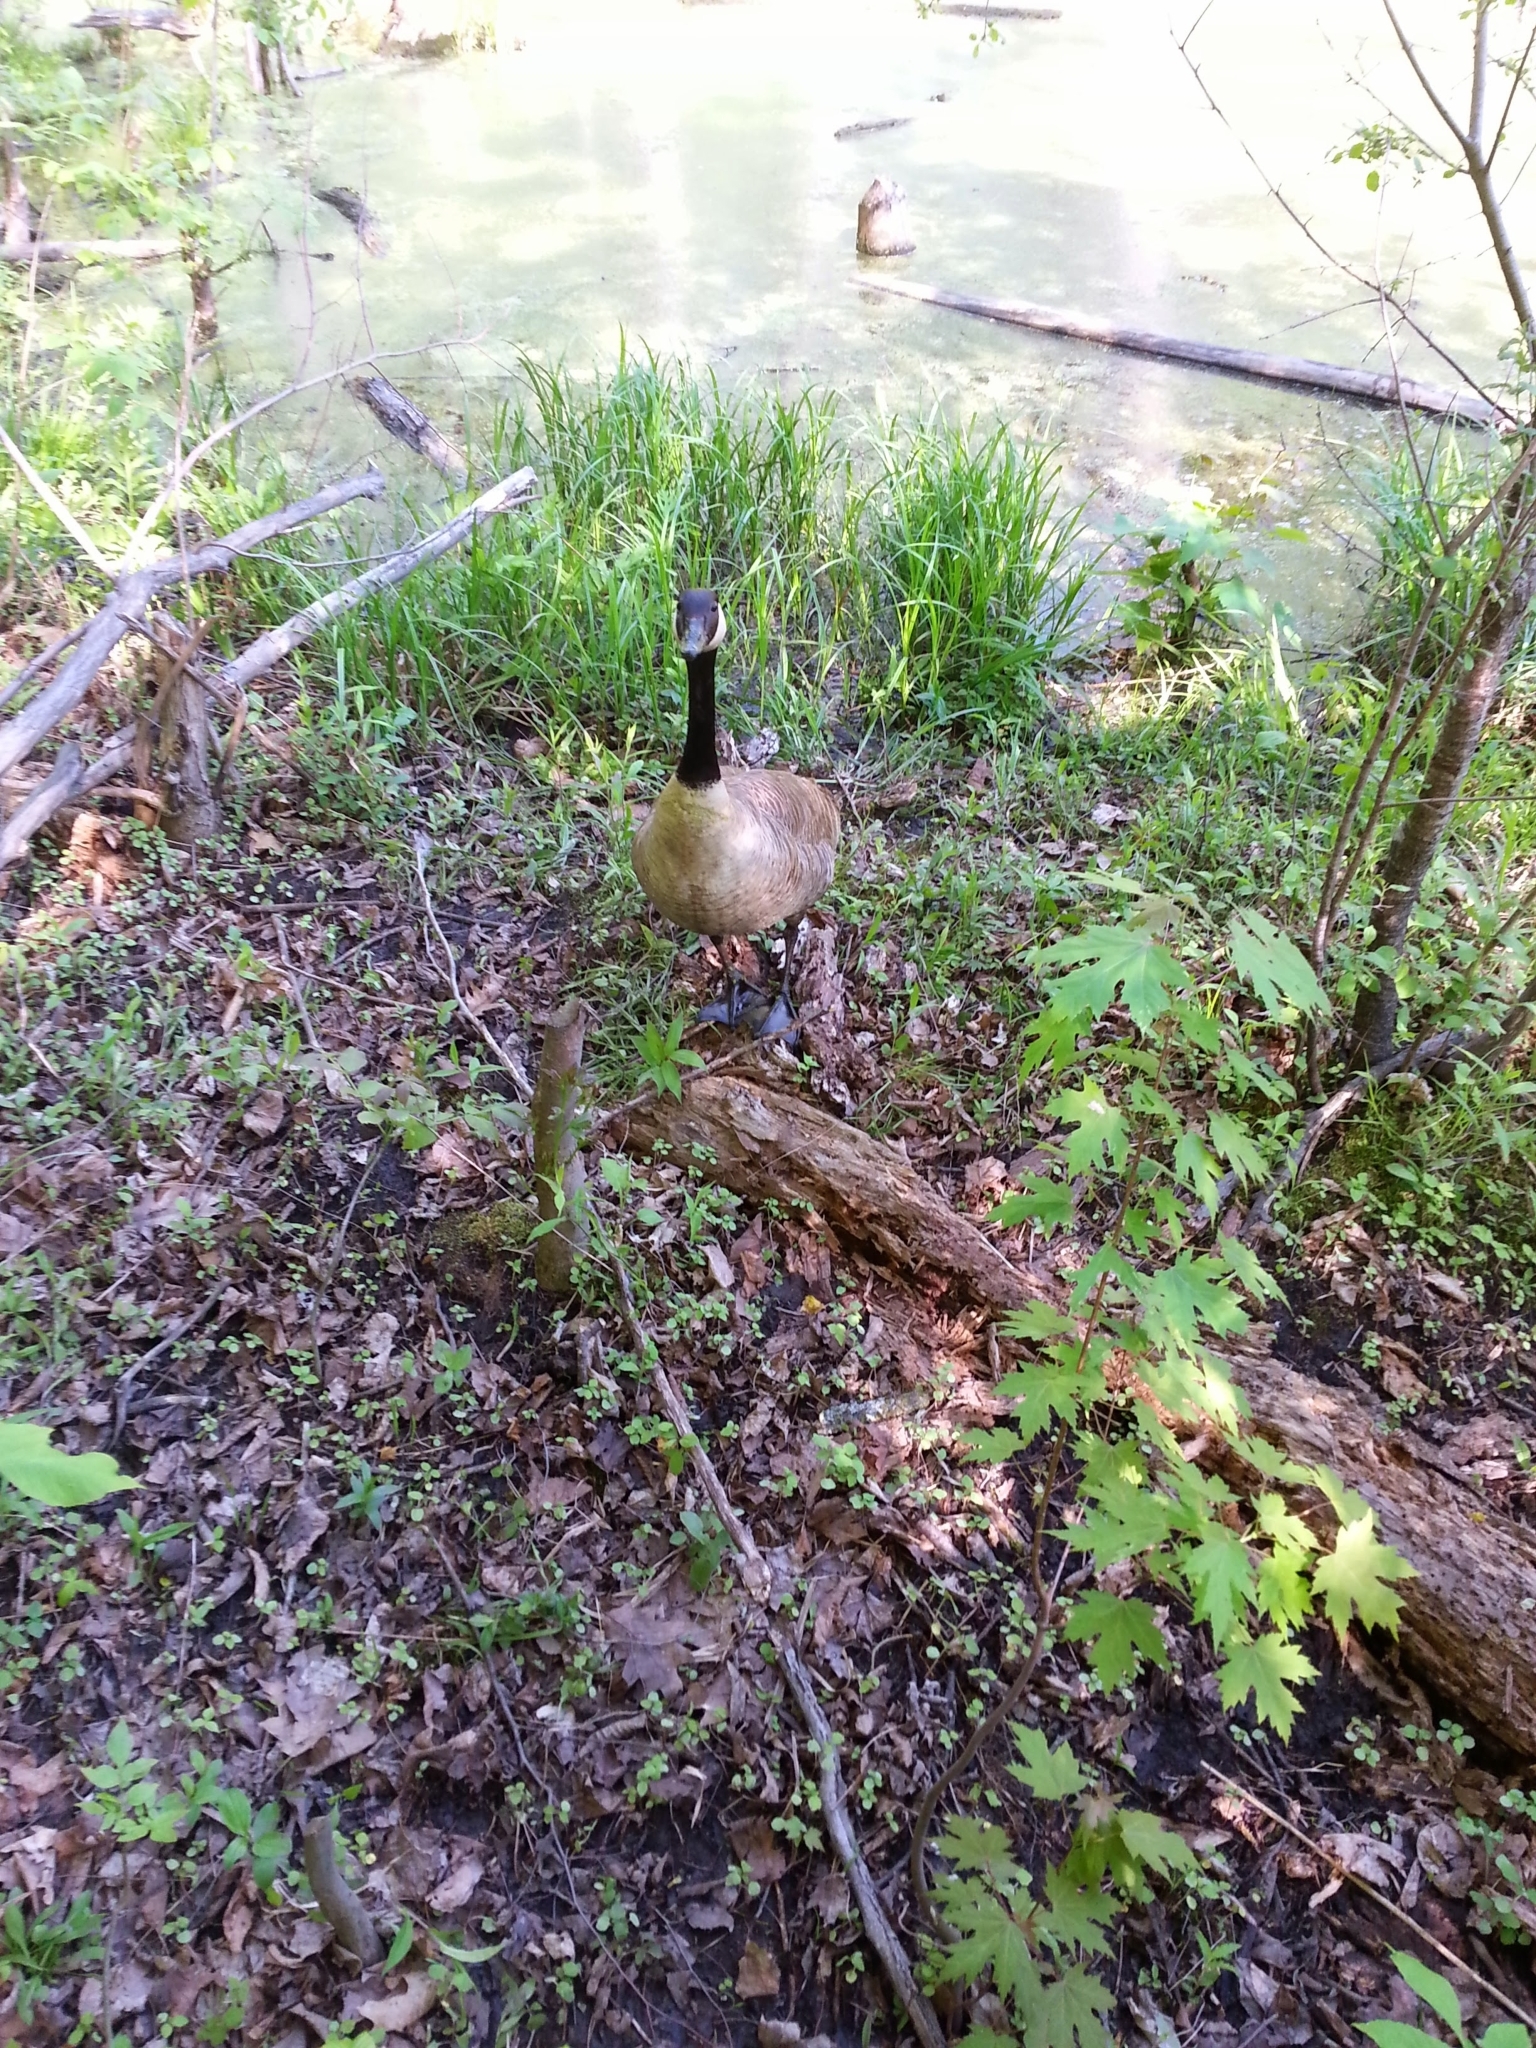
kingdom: Animalia
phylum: Chordata
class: Aves
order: Anseriformes
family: Anatidae
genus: Branta
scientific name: Branta canadensis
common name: Canada goose
